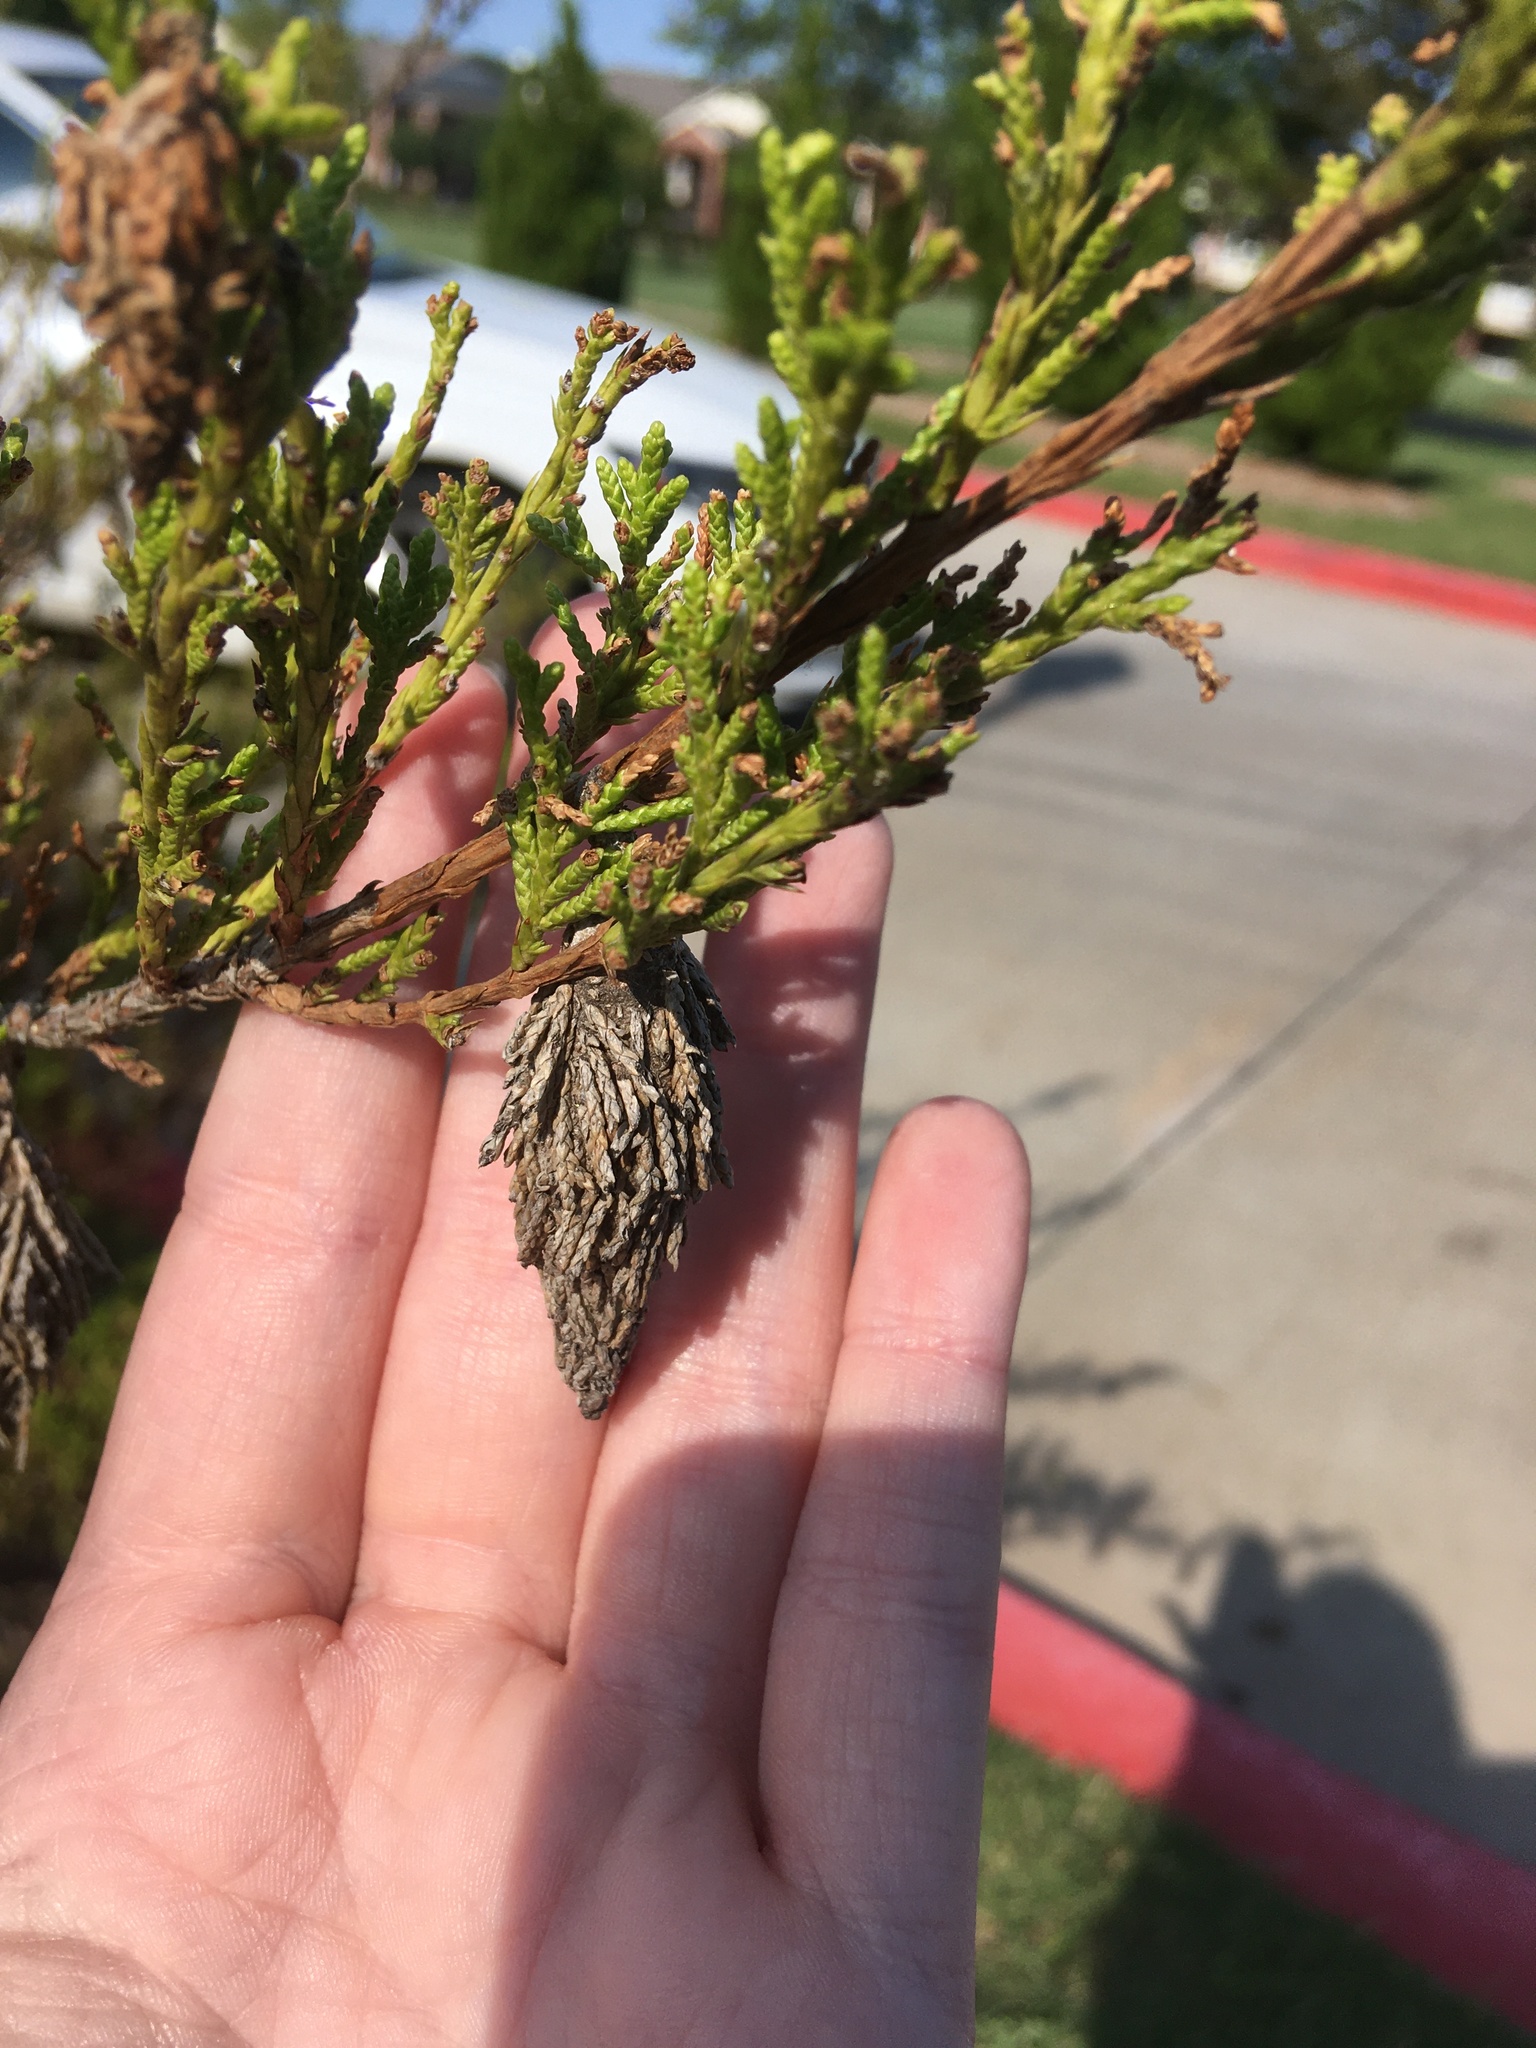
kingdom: Animalia
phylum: Arthropoda
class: Insecta
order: Lepidoptera
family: Psychidae
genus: Thyridopteryx
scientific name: Thyridopteryx ephemeraeformis
